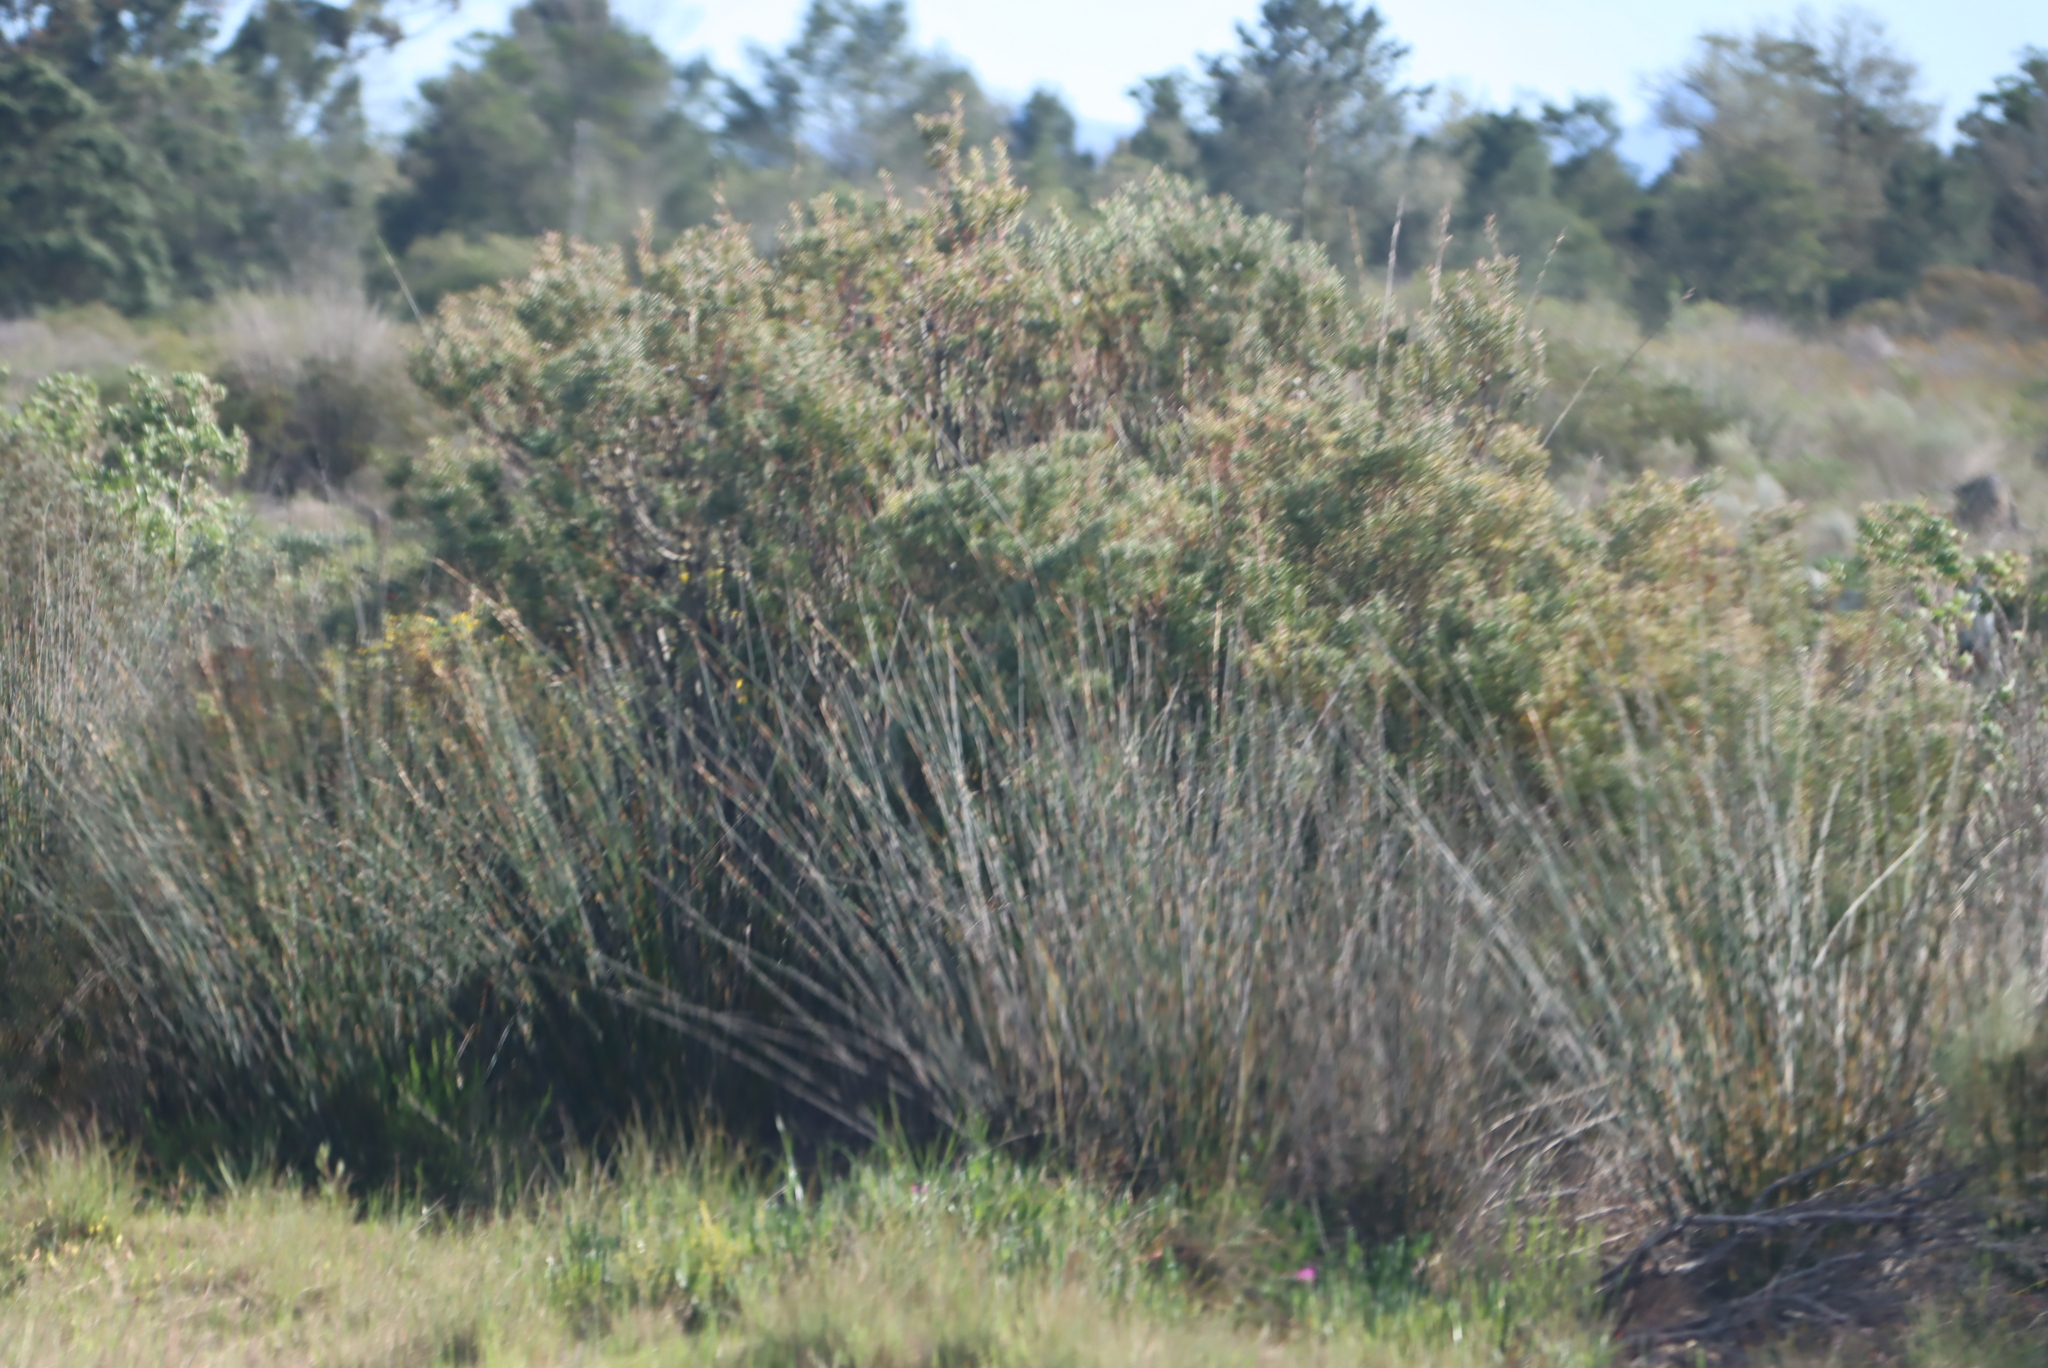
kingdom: Plantae
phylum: Tracheophyta
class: Magnoliopsida
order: Proteales
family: Proteaceae
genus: Leucadendron
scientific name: Leucadendron galpinii
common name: Hairless conebush
